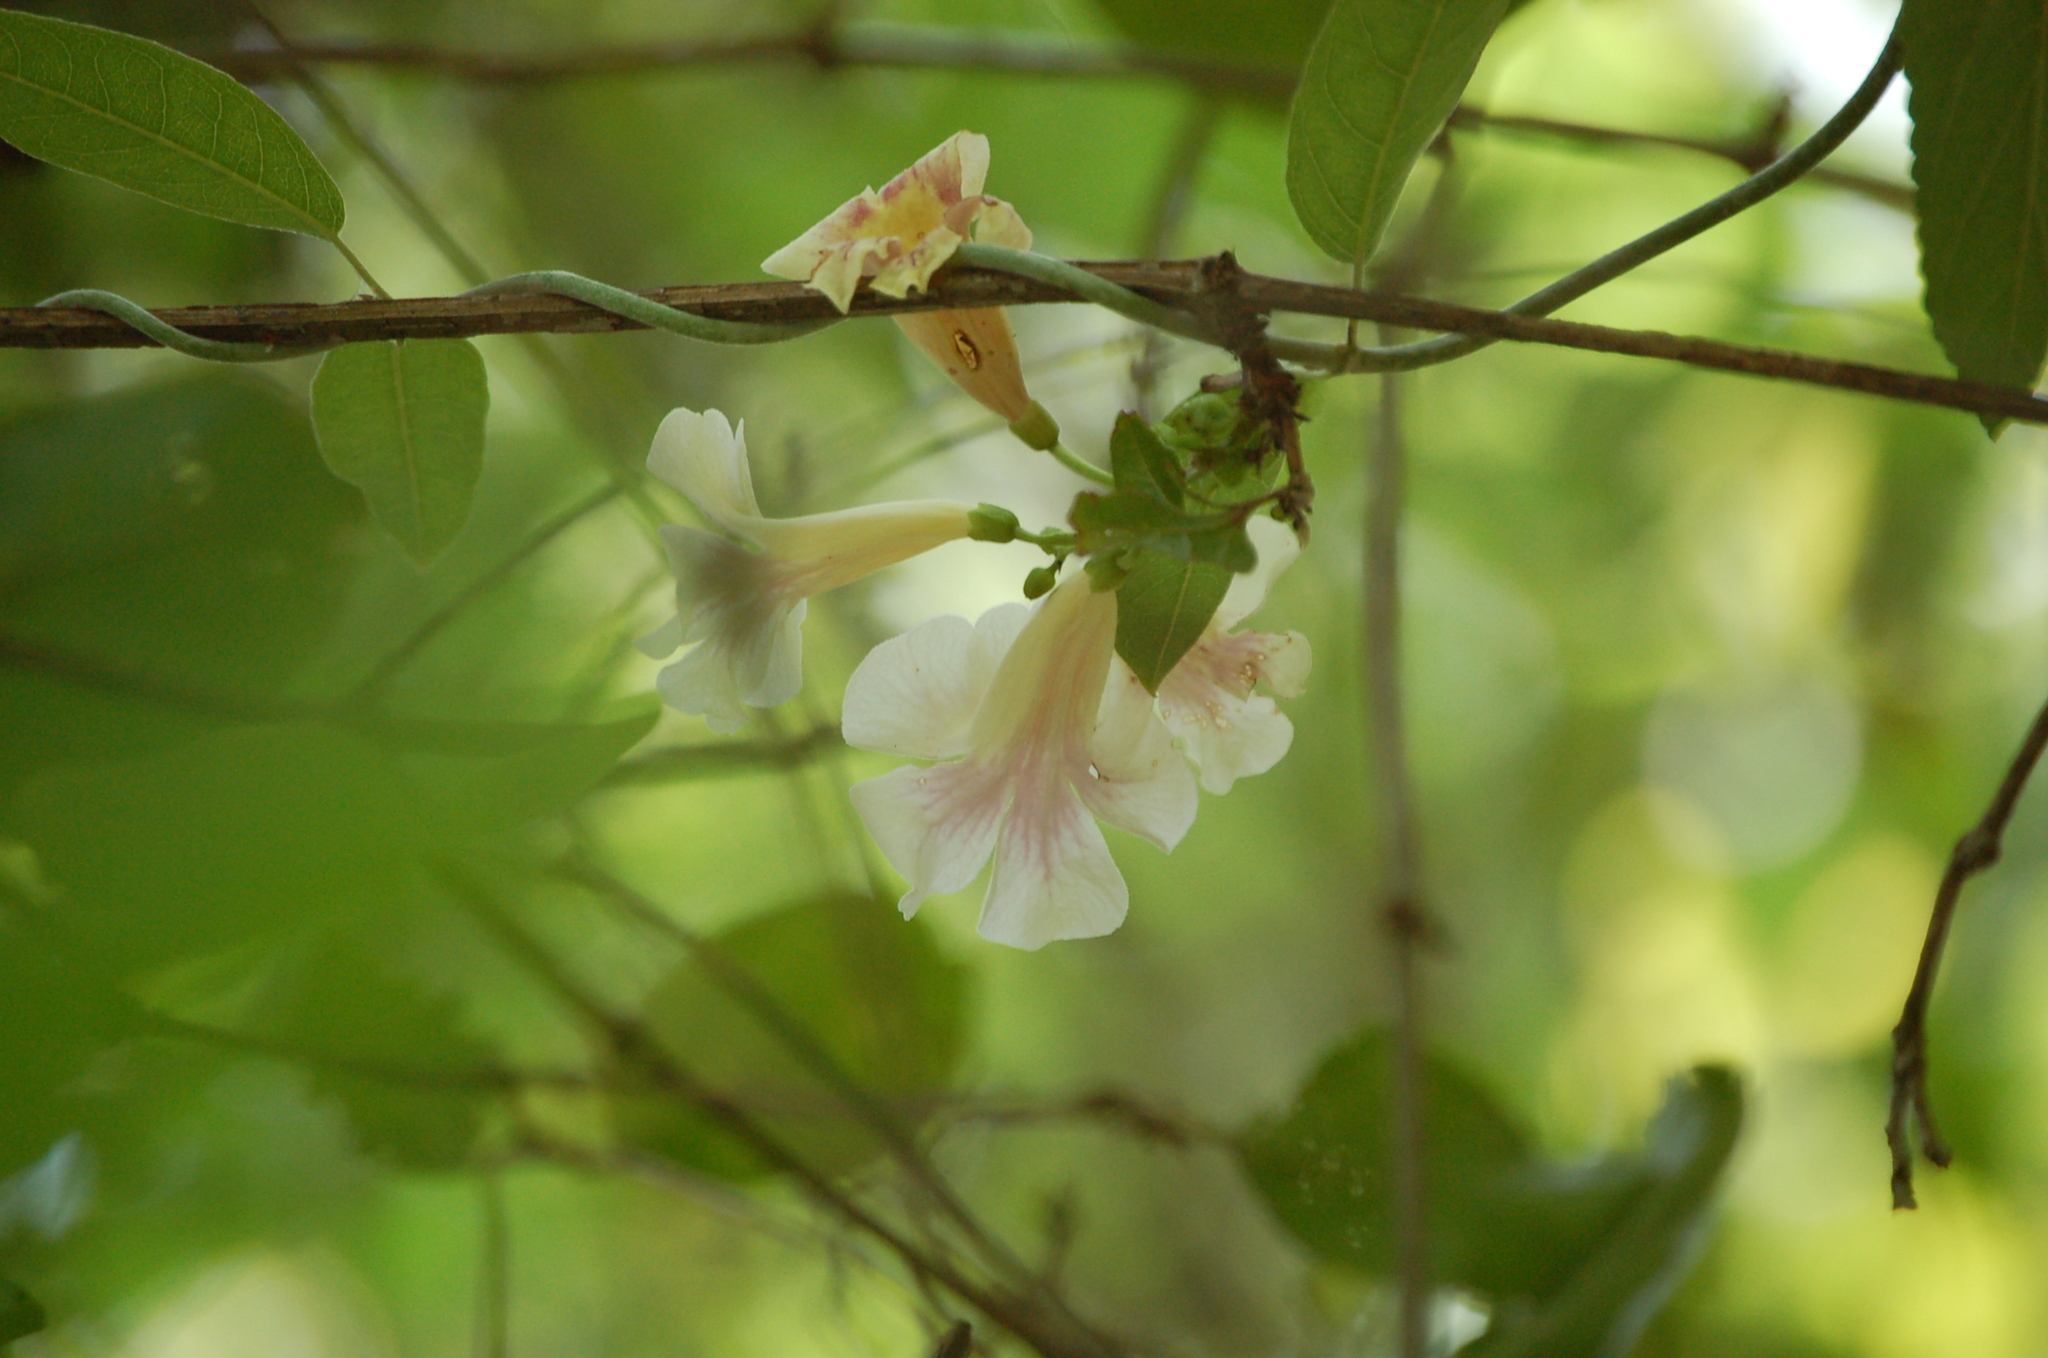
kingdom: Plantae
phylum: Tracheophyta
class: Magnoliopsida
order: Lamiales
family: Bignoniaceae
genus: Bignonia
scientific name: Bignonia potosina
